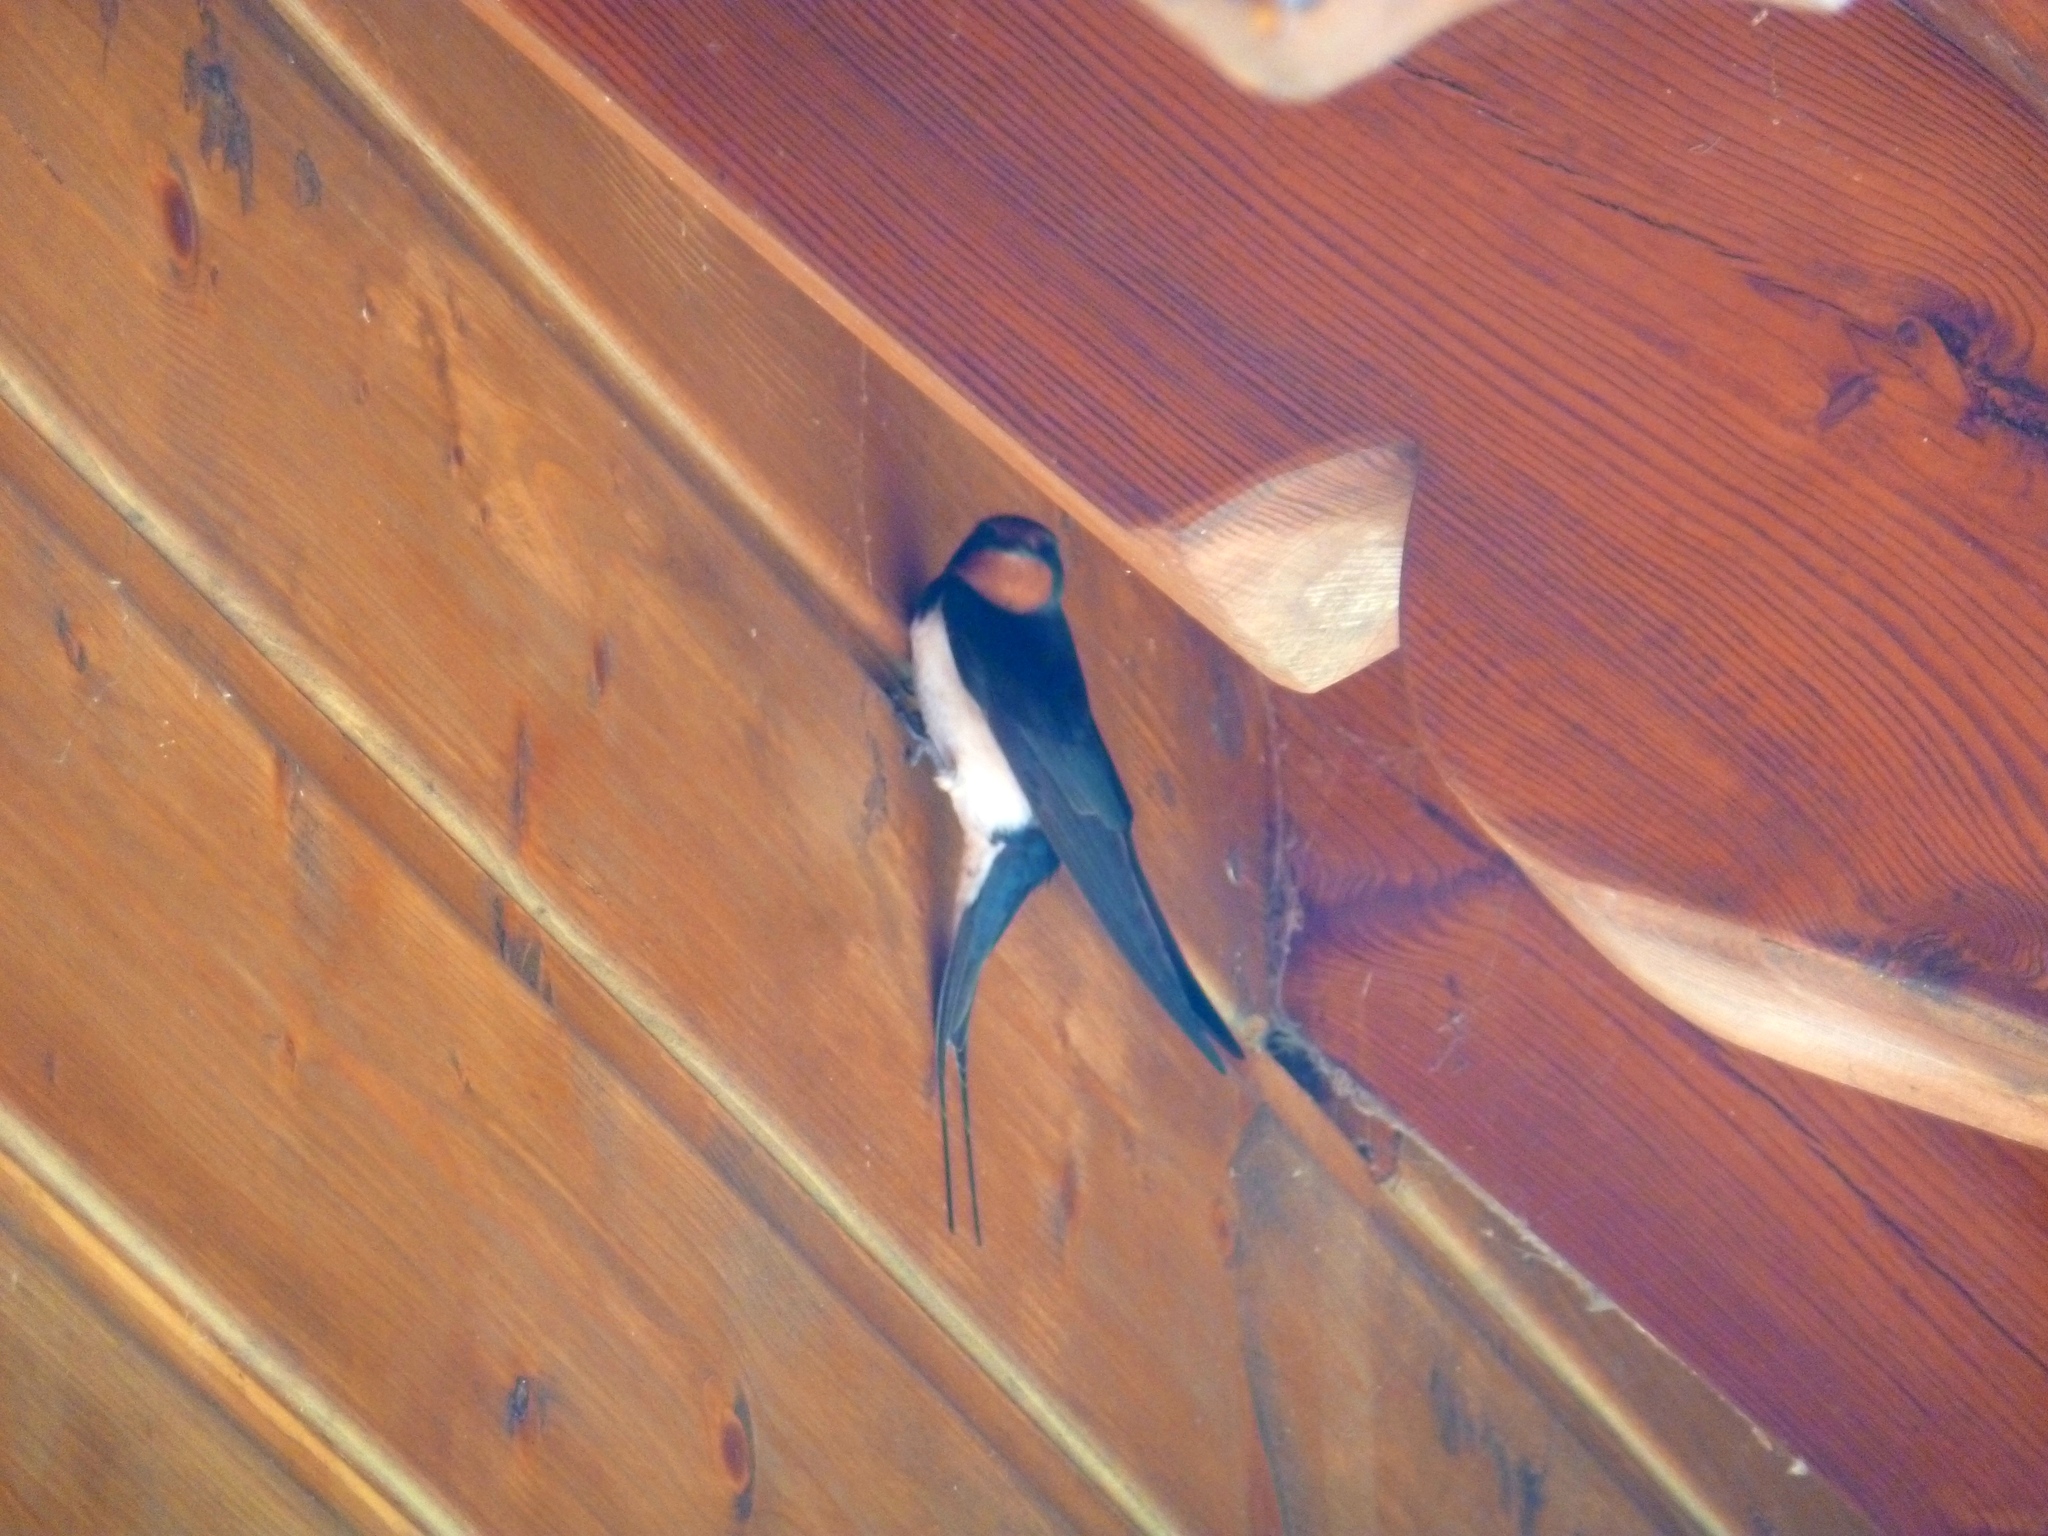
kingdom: Animalia
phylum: Chordata
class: Aves
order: Passeriformes
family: Hirundinidae
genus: Hirundo
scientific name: Hirundo rustica
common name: Barn swallow
